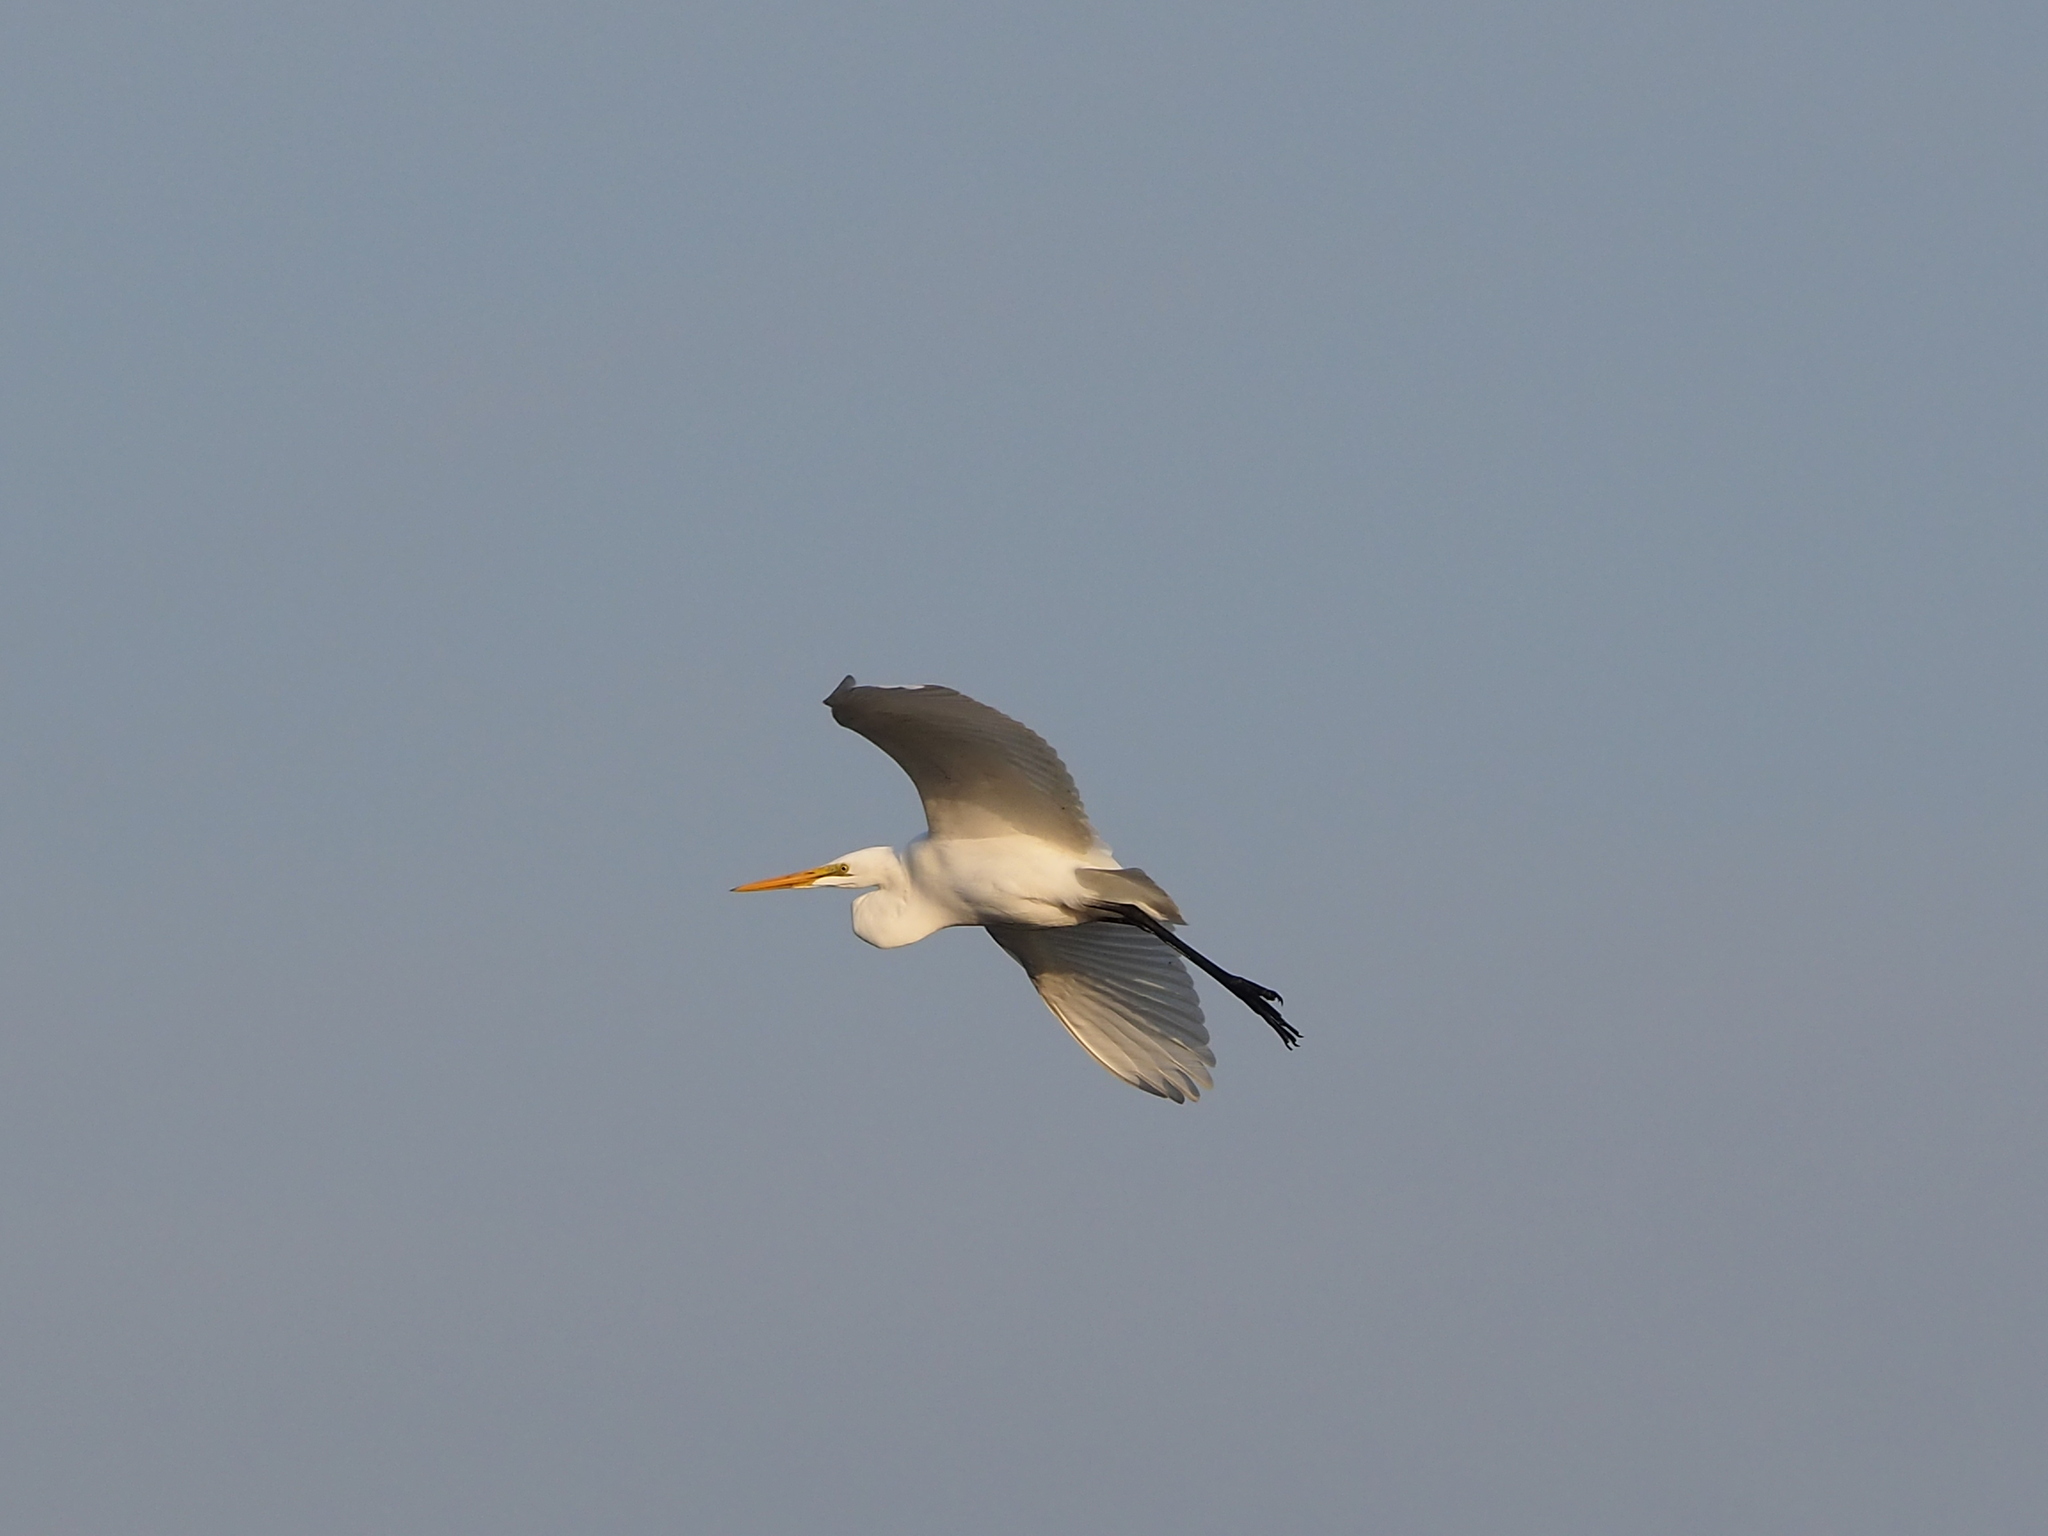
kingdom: Animalia
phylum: Chordata
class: Aves
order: Pelecaniformes
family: Ardeidae
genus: Ardea
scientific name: Ardea modesta
